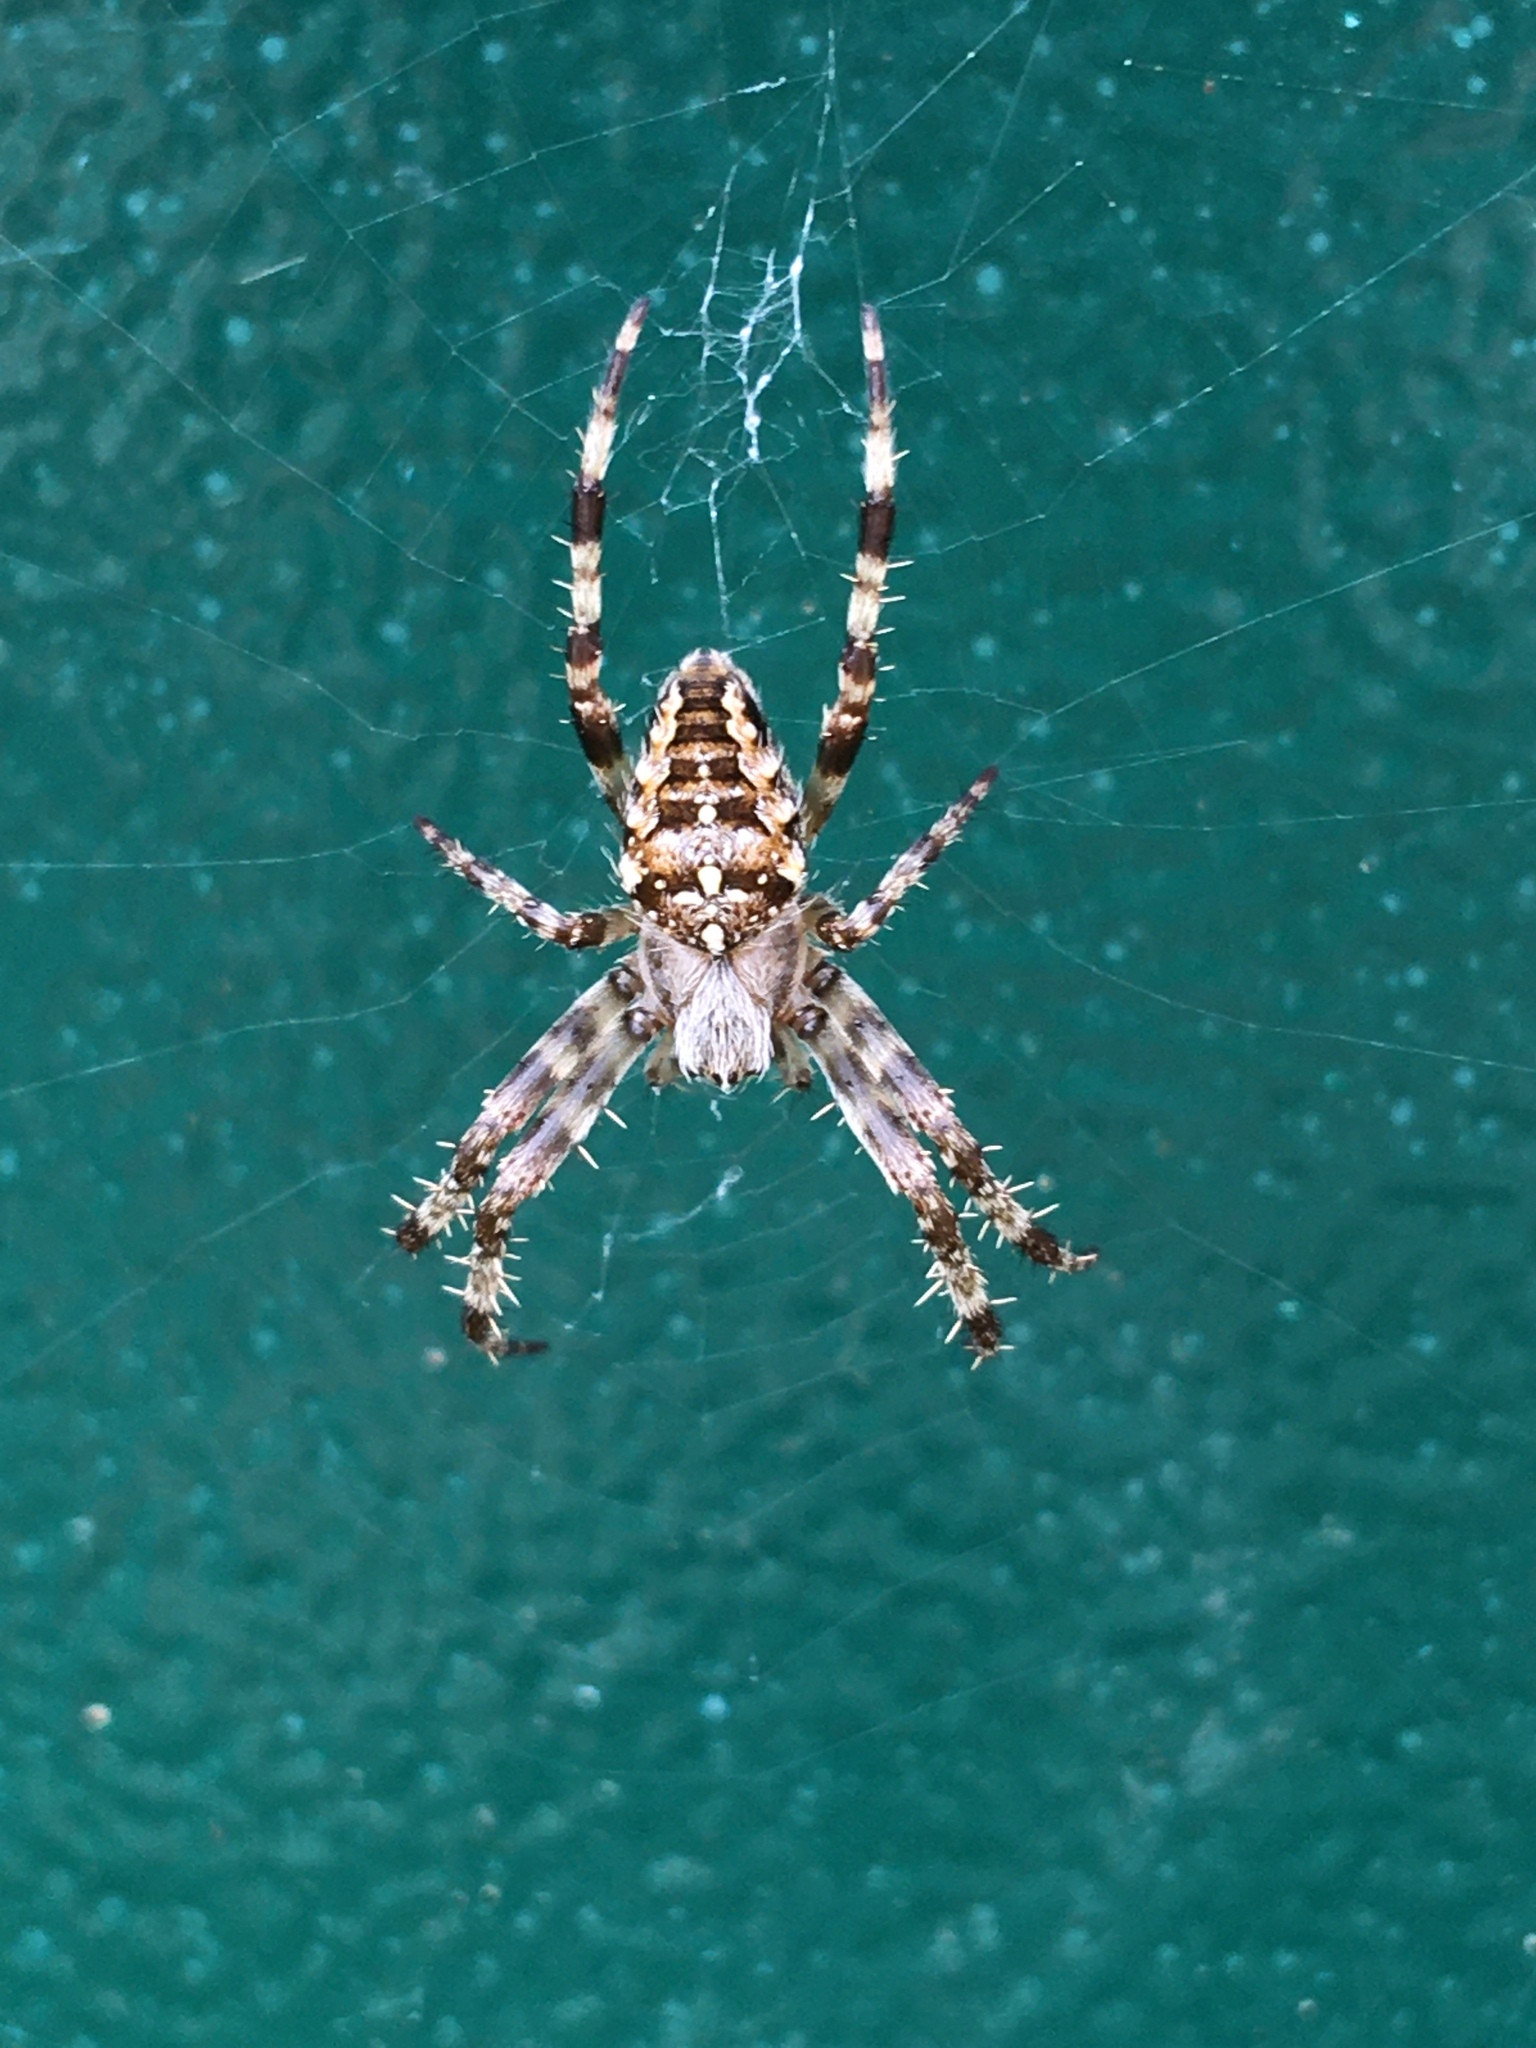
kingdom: Animalia
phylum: Arthropoda
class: Arachnida
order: Araneae
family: Araneidae
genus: Araneus
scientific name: Araneus diadematus
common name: Cross orbweaver
